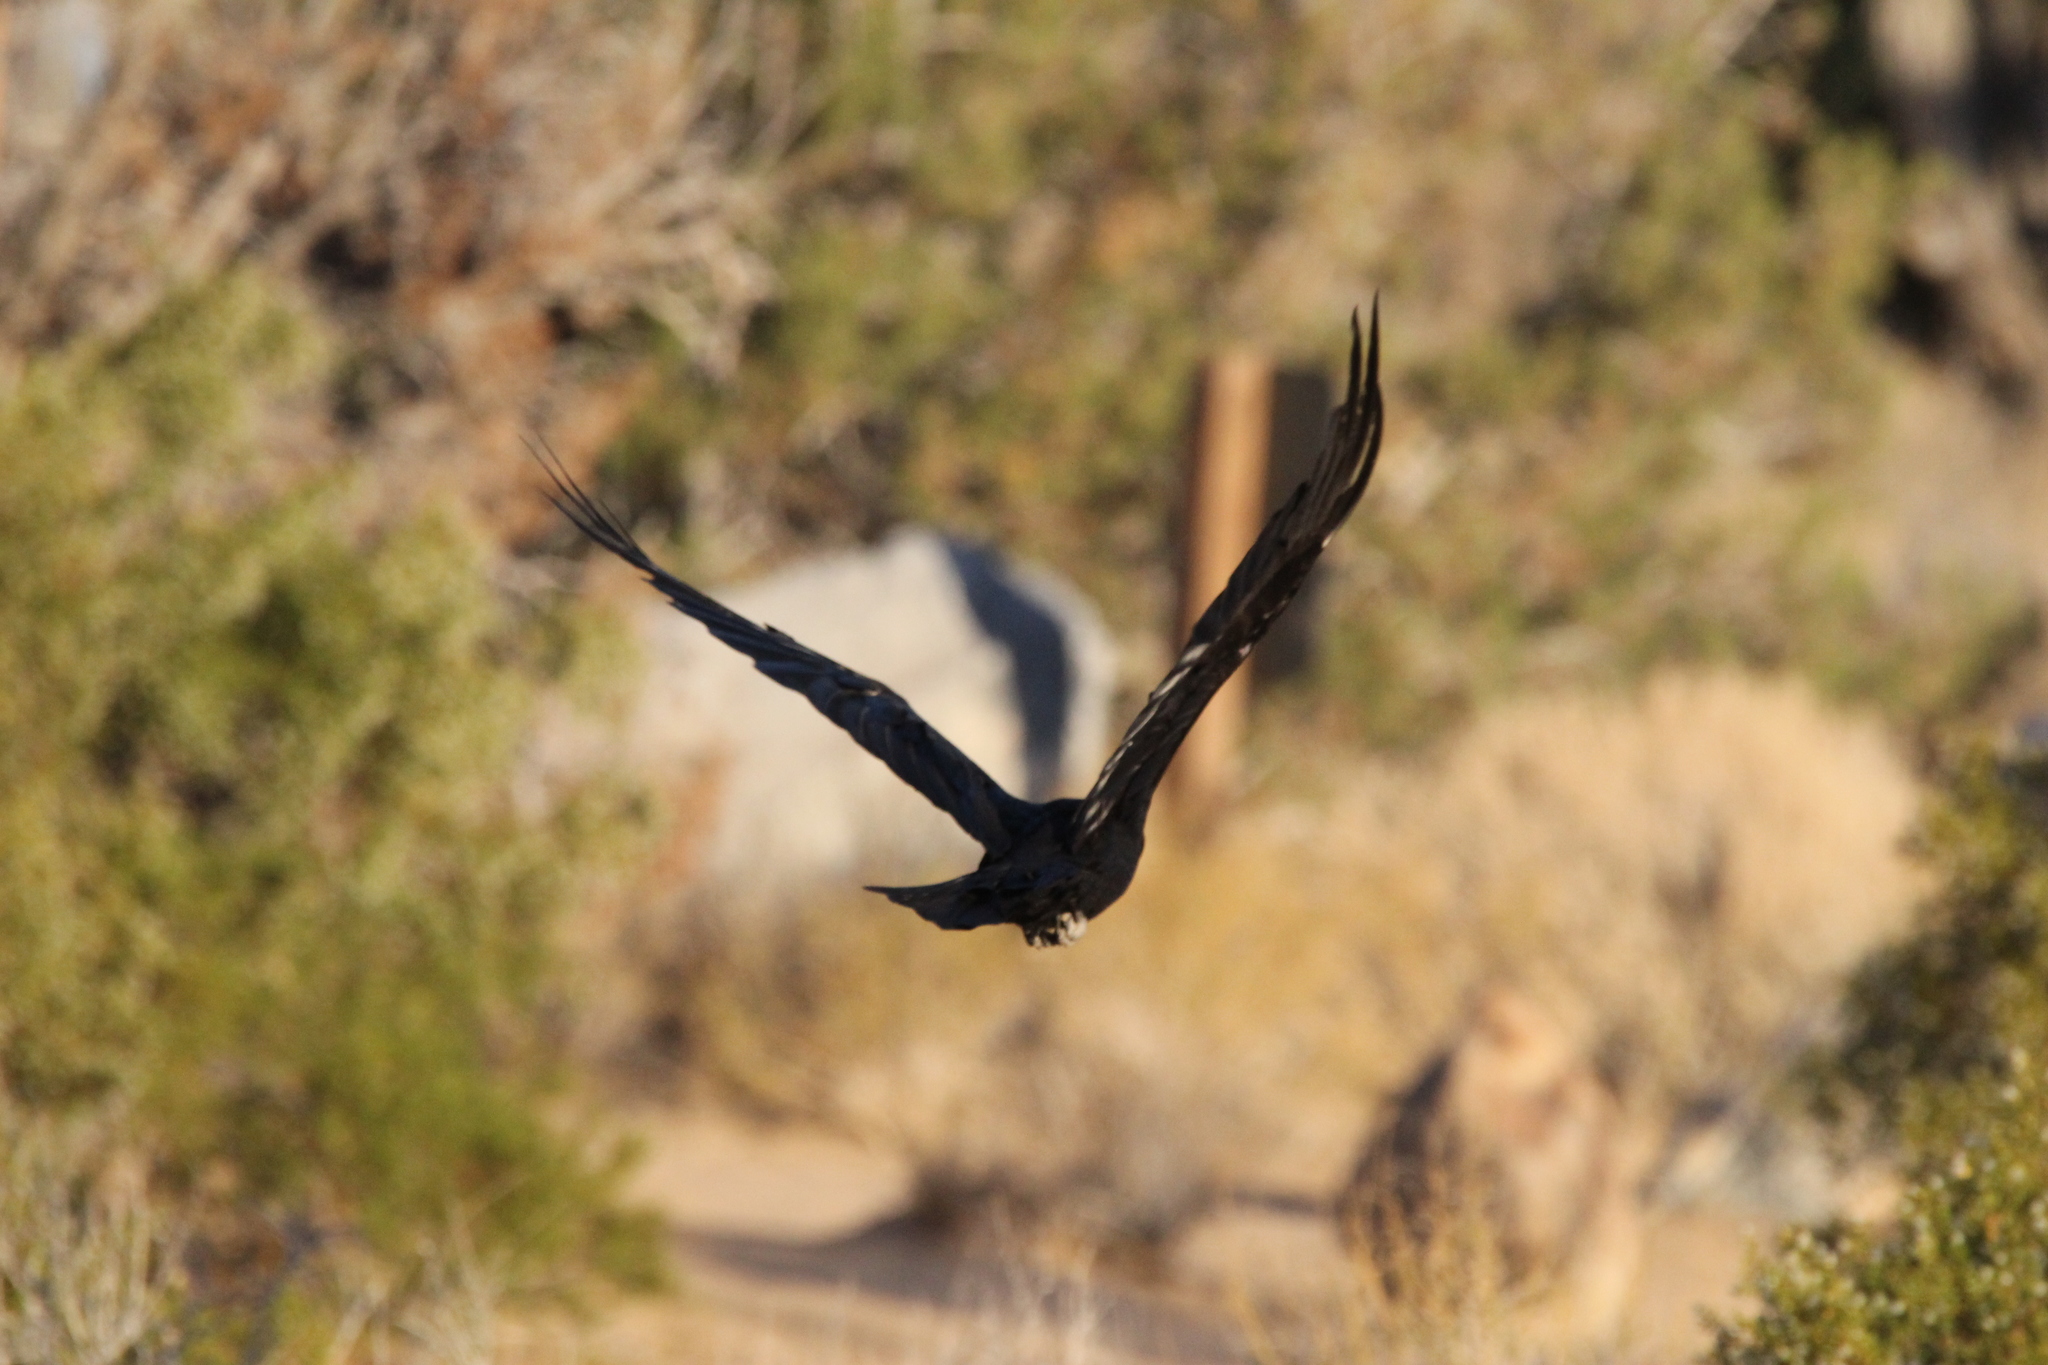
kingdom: Animalia
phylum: Chordata
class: Aves
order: Passeriformes
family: Corvidae
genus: Corvus
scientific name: Corvus corax
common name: Common raven
